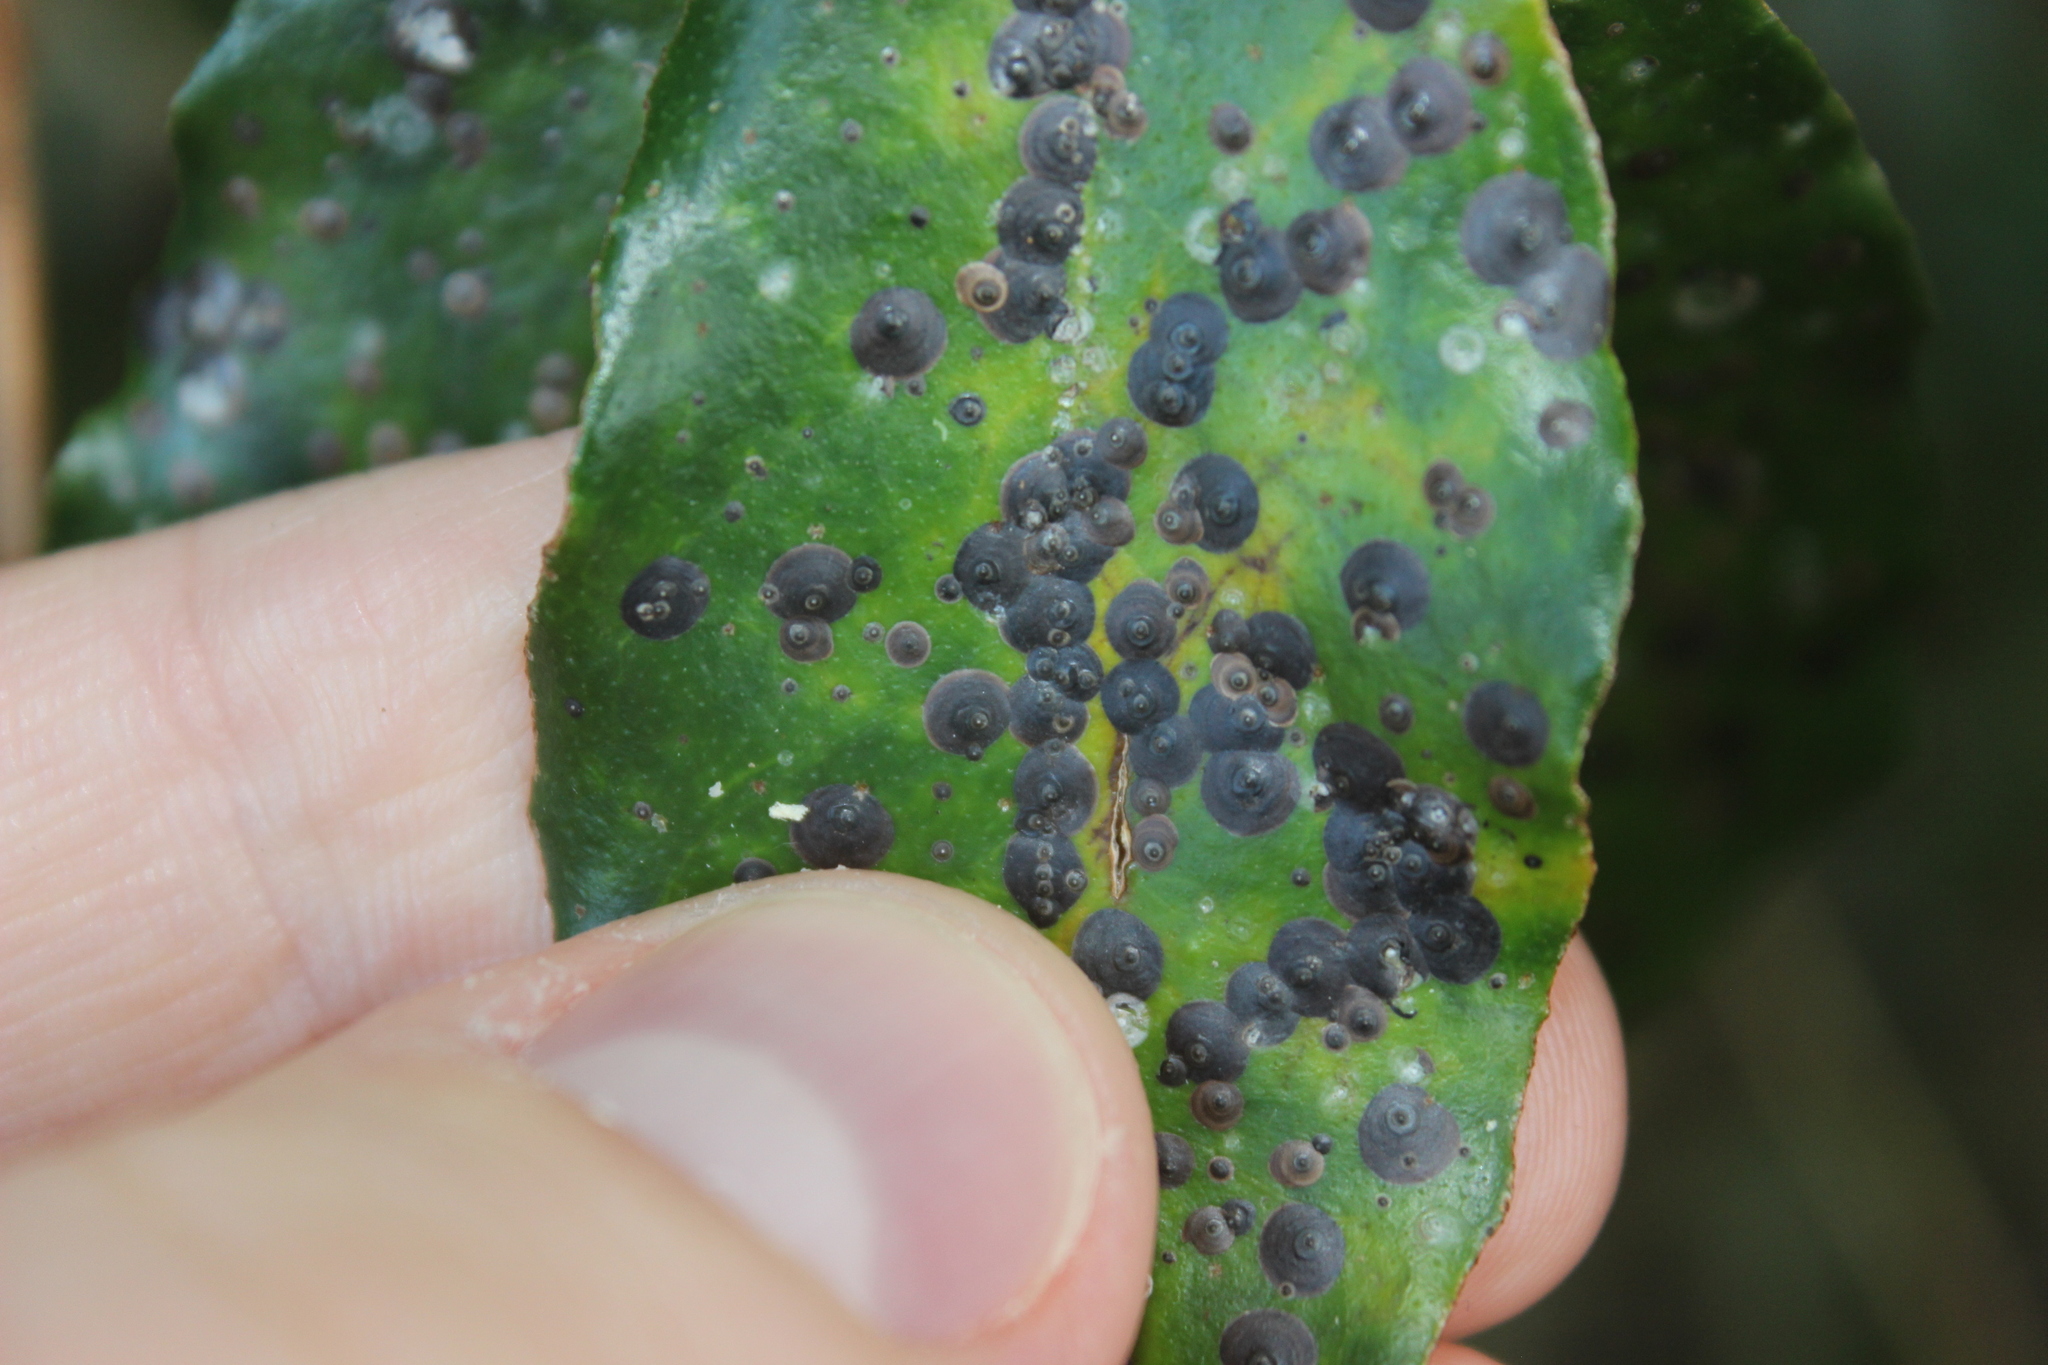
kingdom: Animalia
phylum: Arthropoda
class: Insecta
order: Hemiptera
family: Diaspididae
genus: Lindingaspis
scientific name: Lindingaspis rossi
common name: Araucaria black scale
